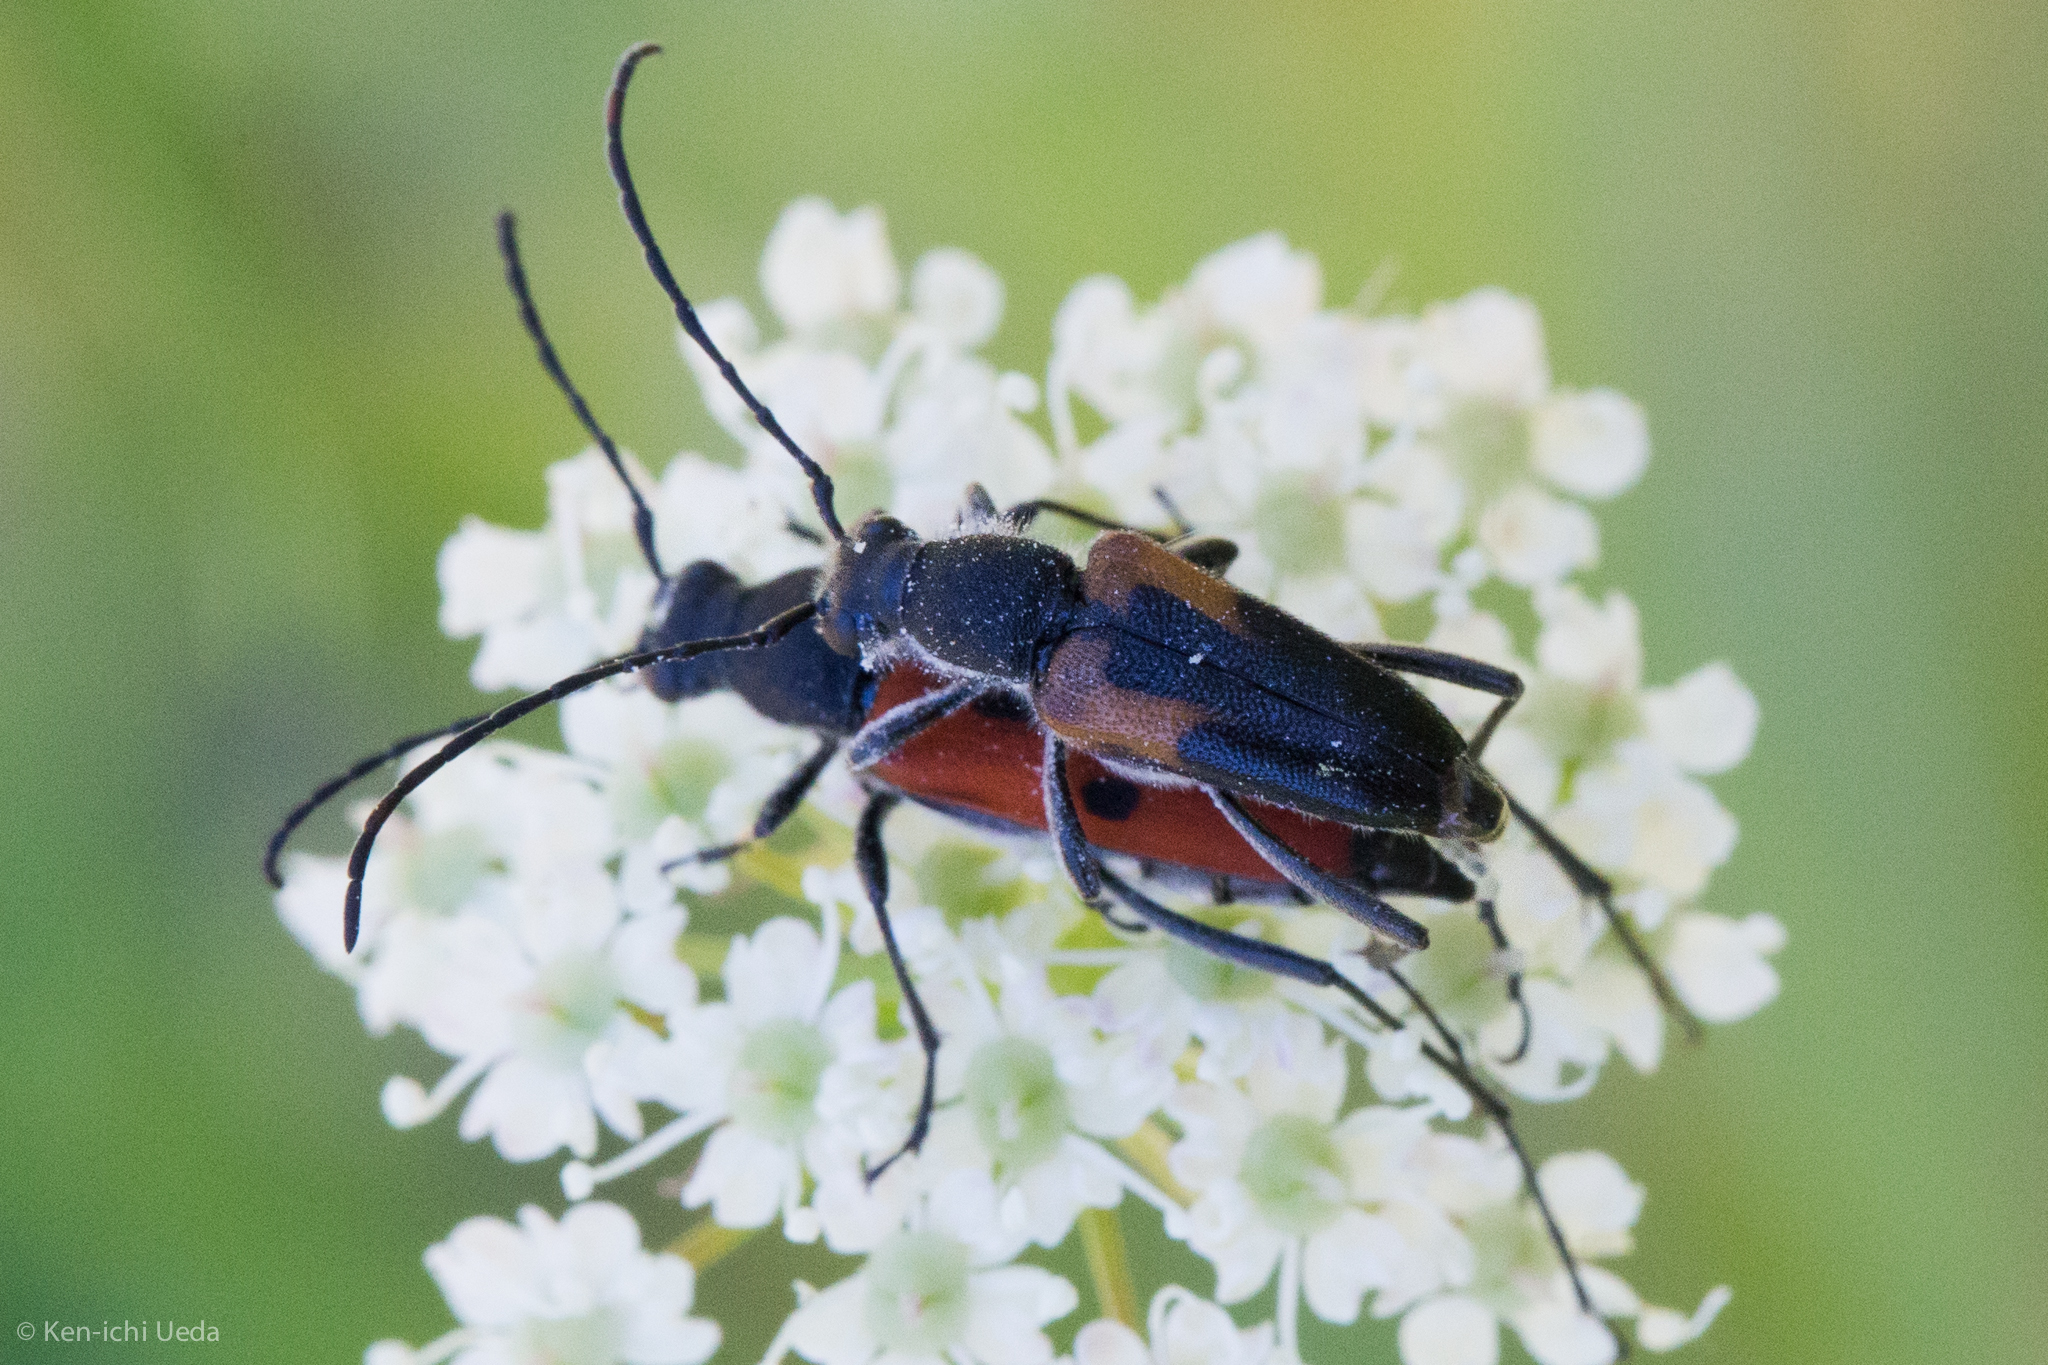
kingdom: Animalia
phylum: Arthropoda
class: Insecta
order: Coleoptera
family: Cerambycidae
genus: Anastrangalia
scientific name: Anastrangalia laetifica
